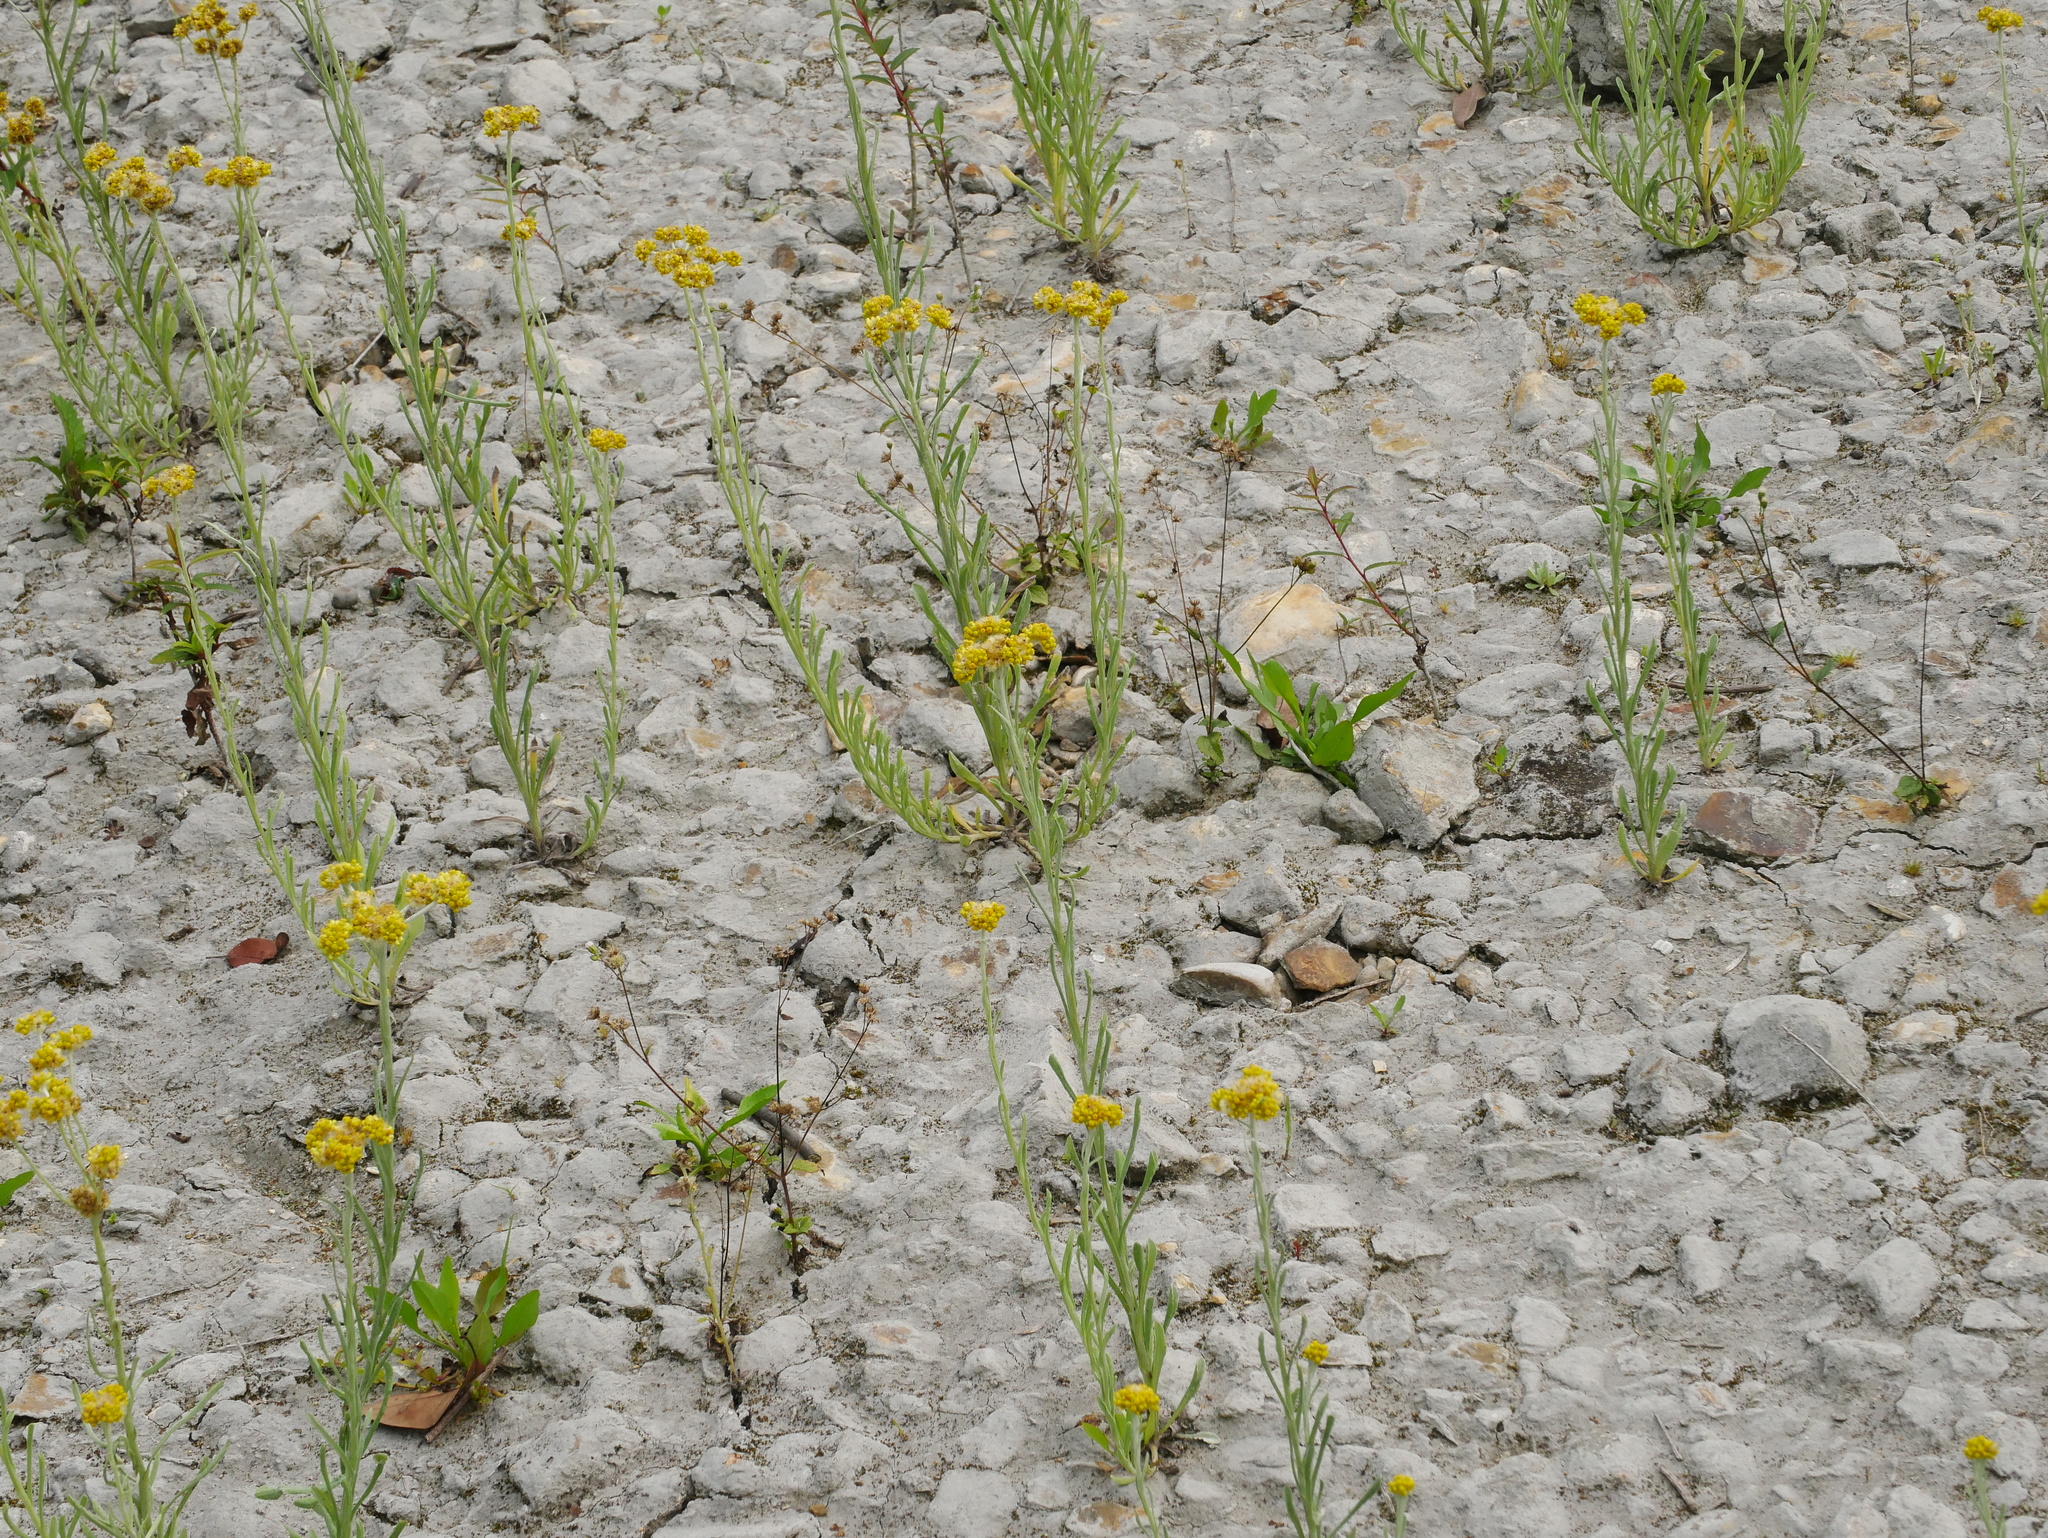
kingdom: Plantae
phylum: Tracheophyta
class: Magnoliopsida
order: Asterales
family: Asteraceae
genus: Pseudognaphalium
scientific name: Pseudognaphalium hypoleucum
